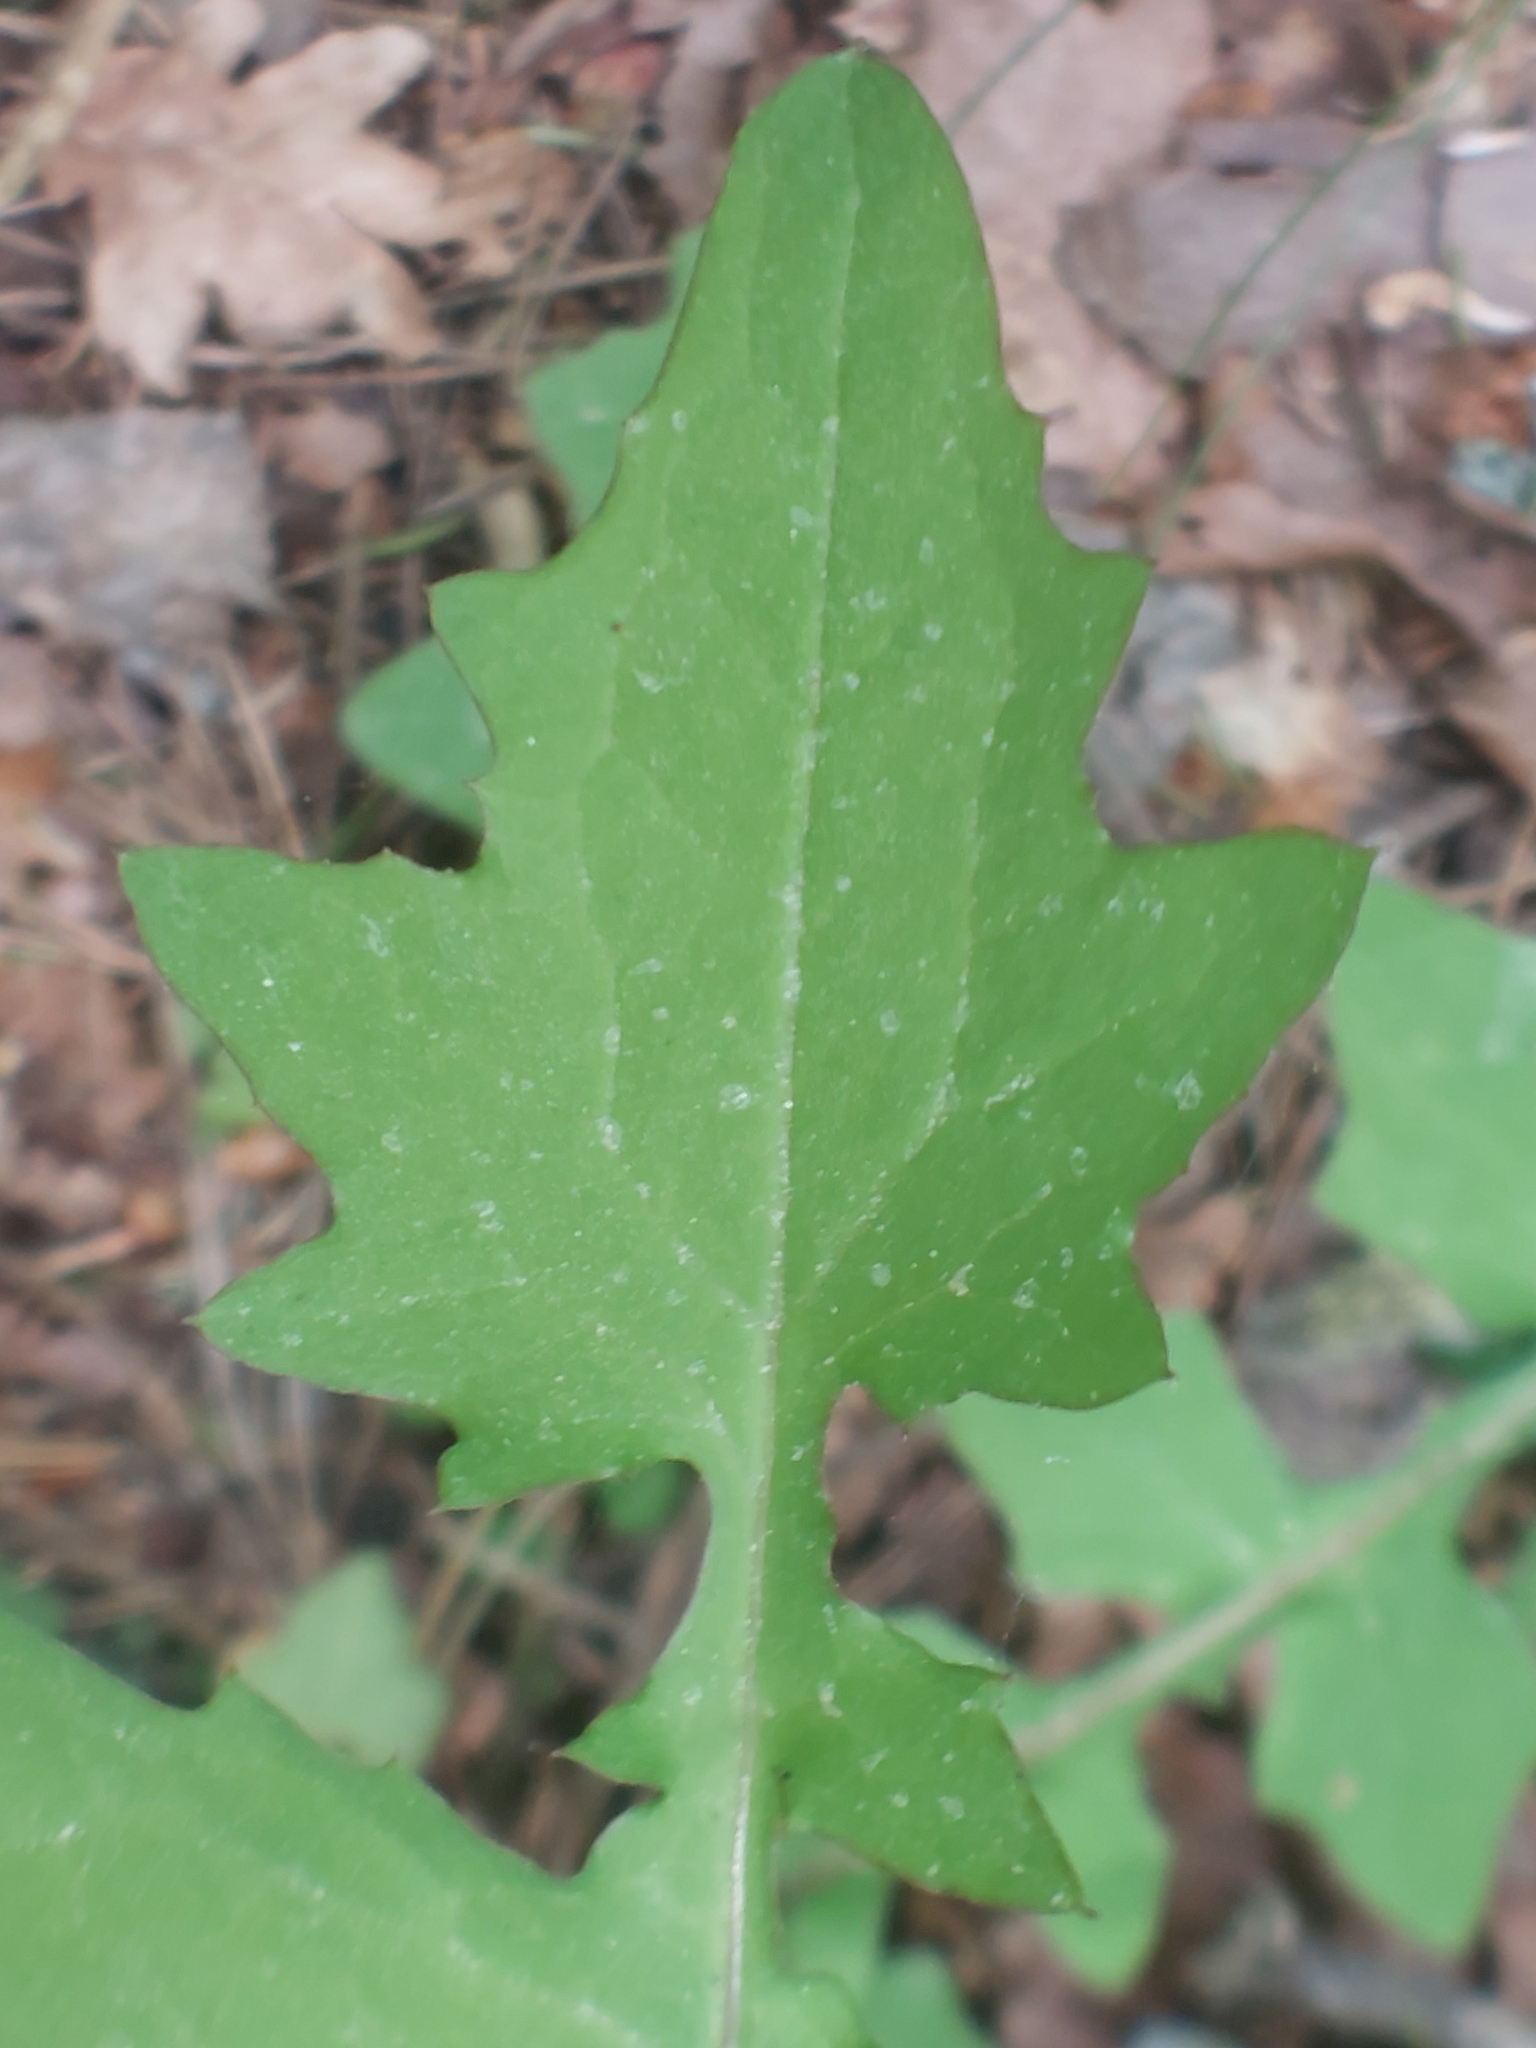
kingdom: Plantae
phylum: Tracheophyta
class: Magnoliopsida
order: Asterales
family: Asteraceae
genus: Mycelis
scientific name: Mycelis muralis
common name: Wall lettuce
